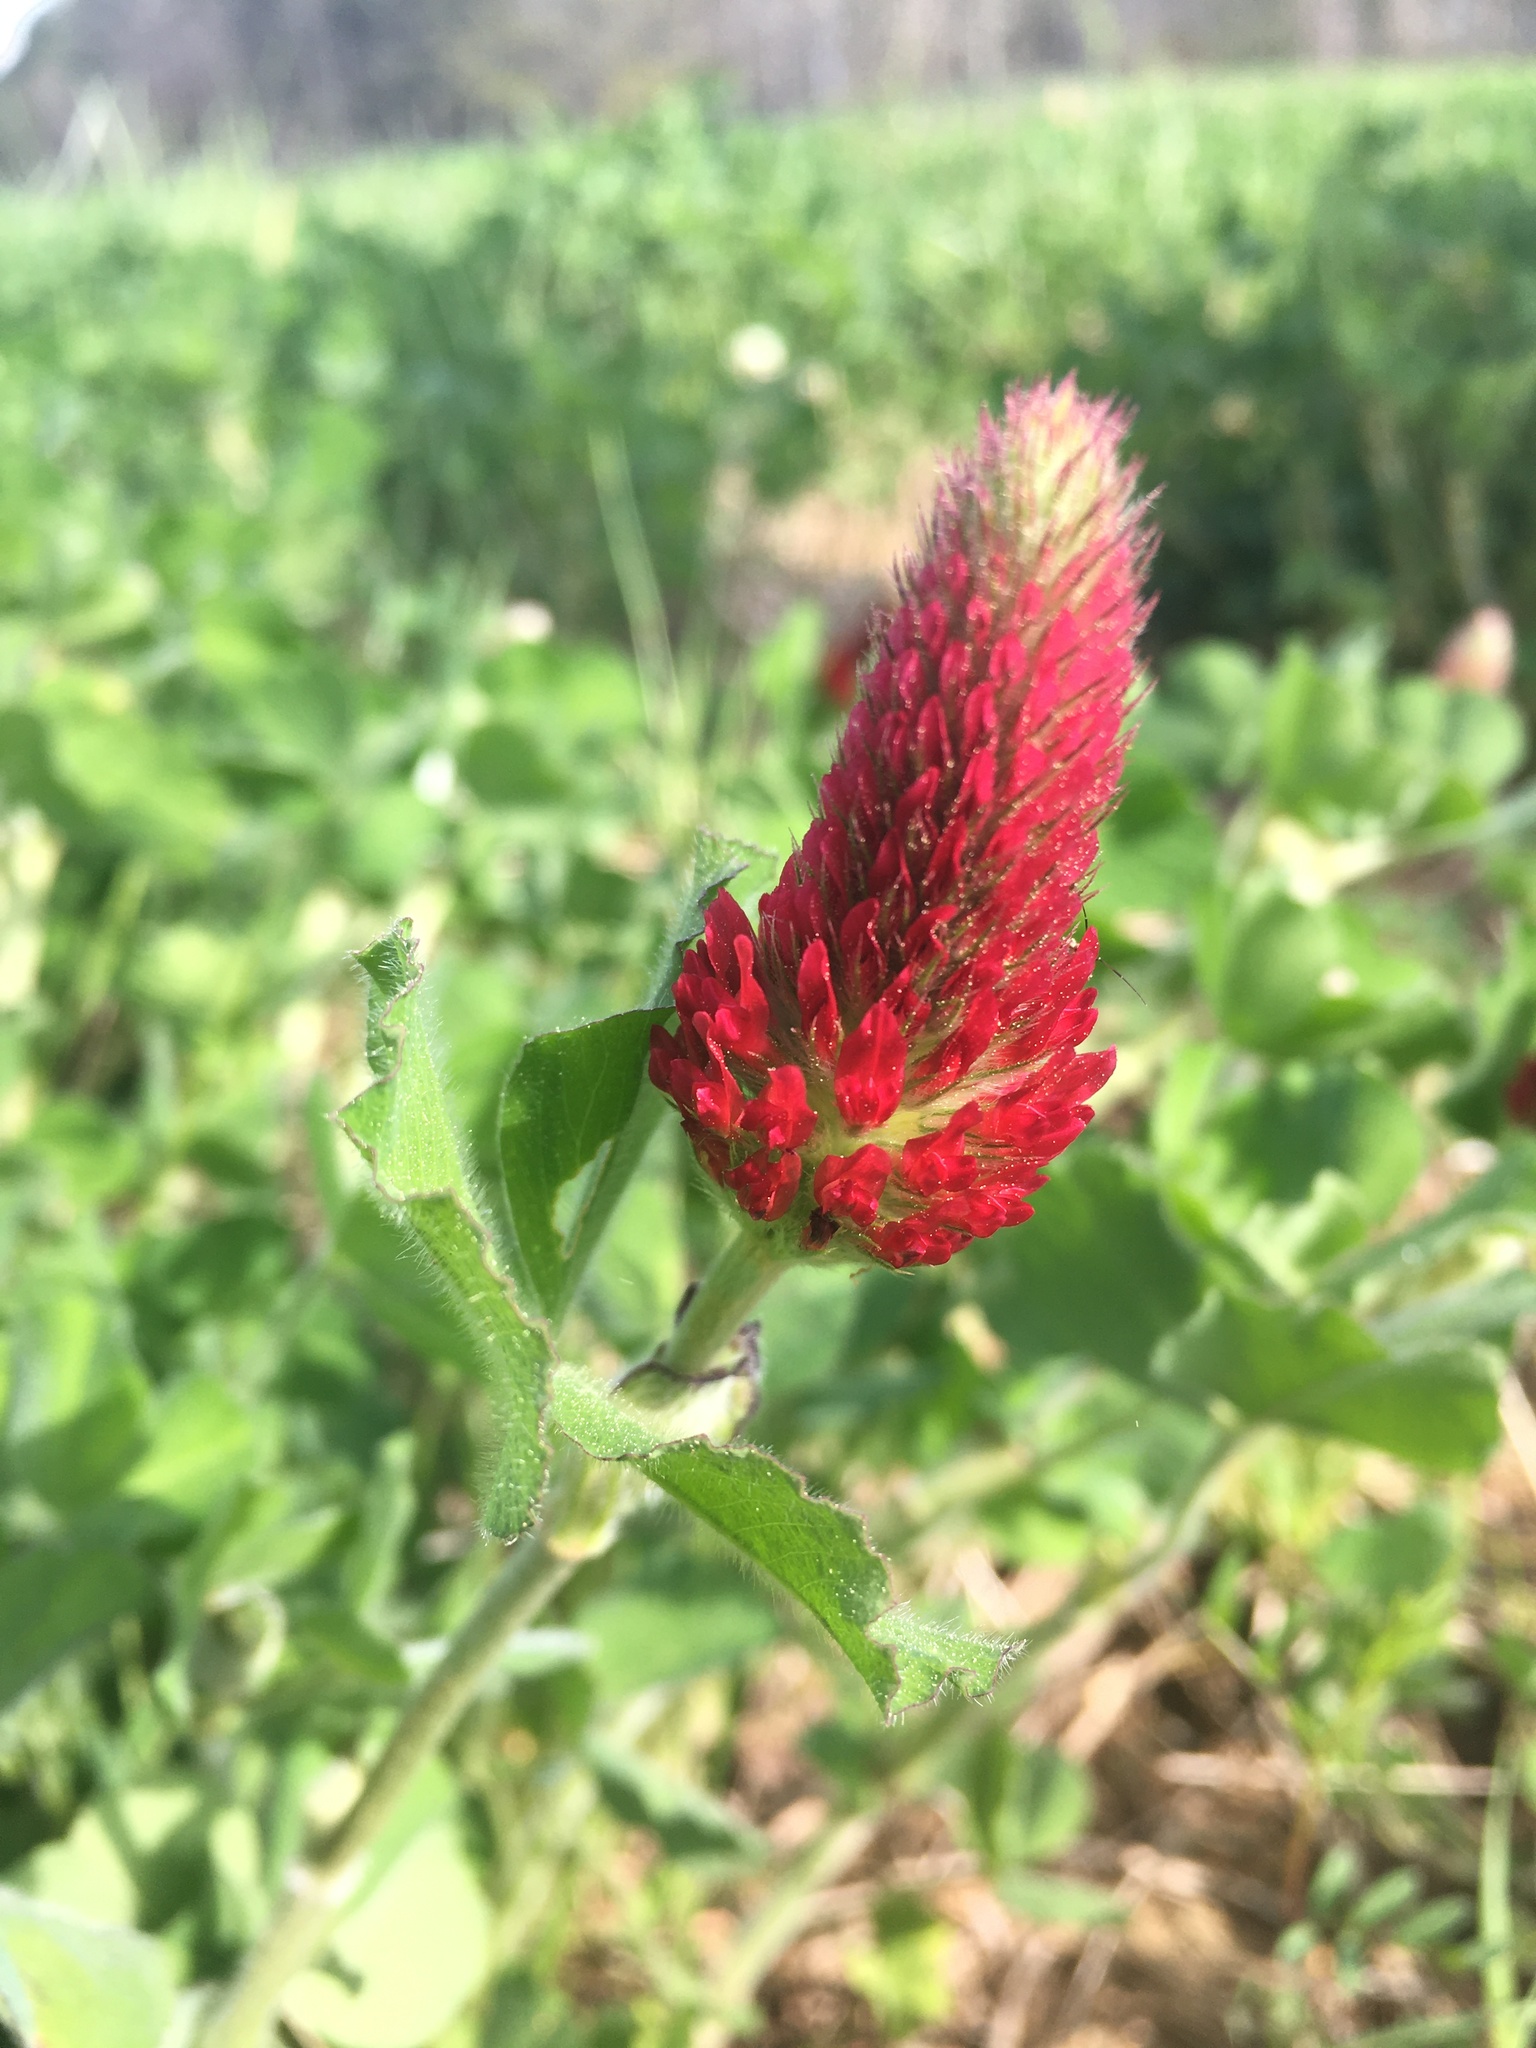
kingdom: Plantae
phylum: Tracheophyta
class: Magnoliopsida
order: Fabales
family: Fabaceae
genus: Trifolium
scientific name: Trifolium incarnatum
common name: Crimson clover
